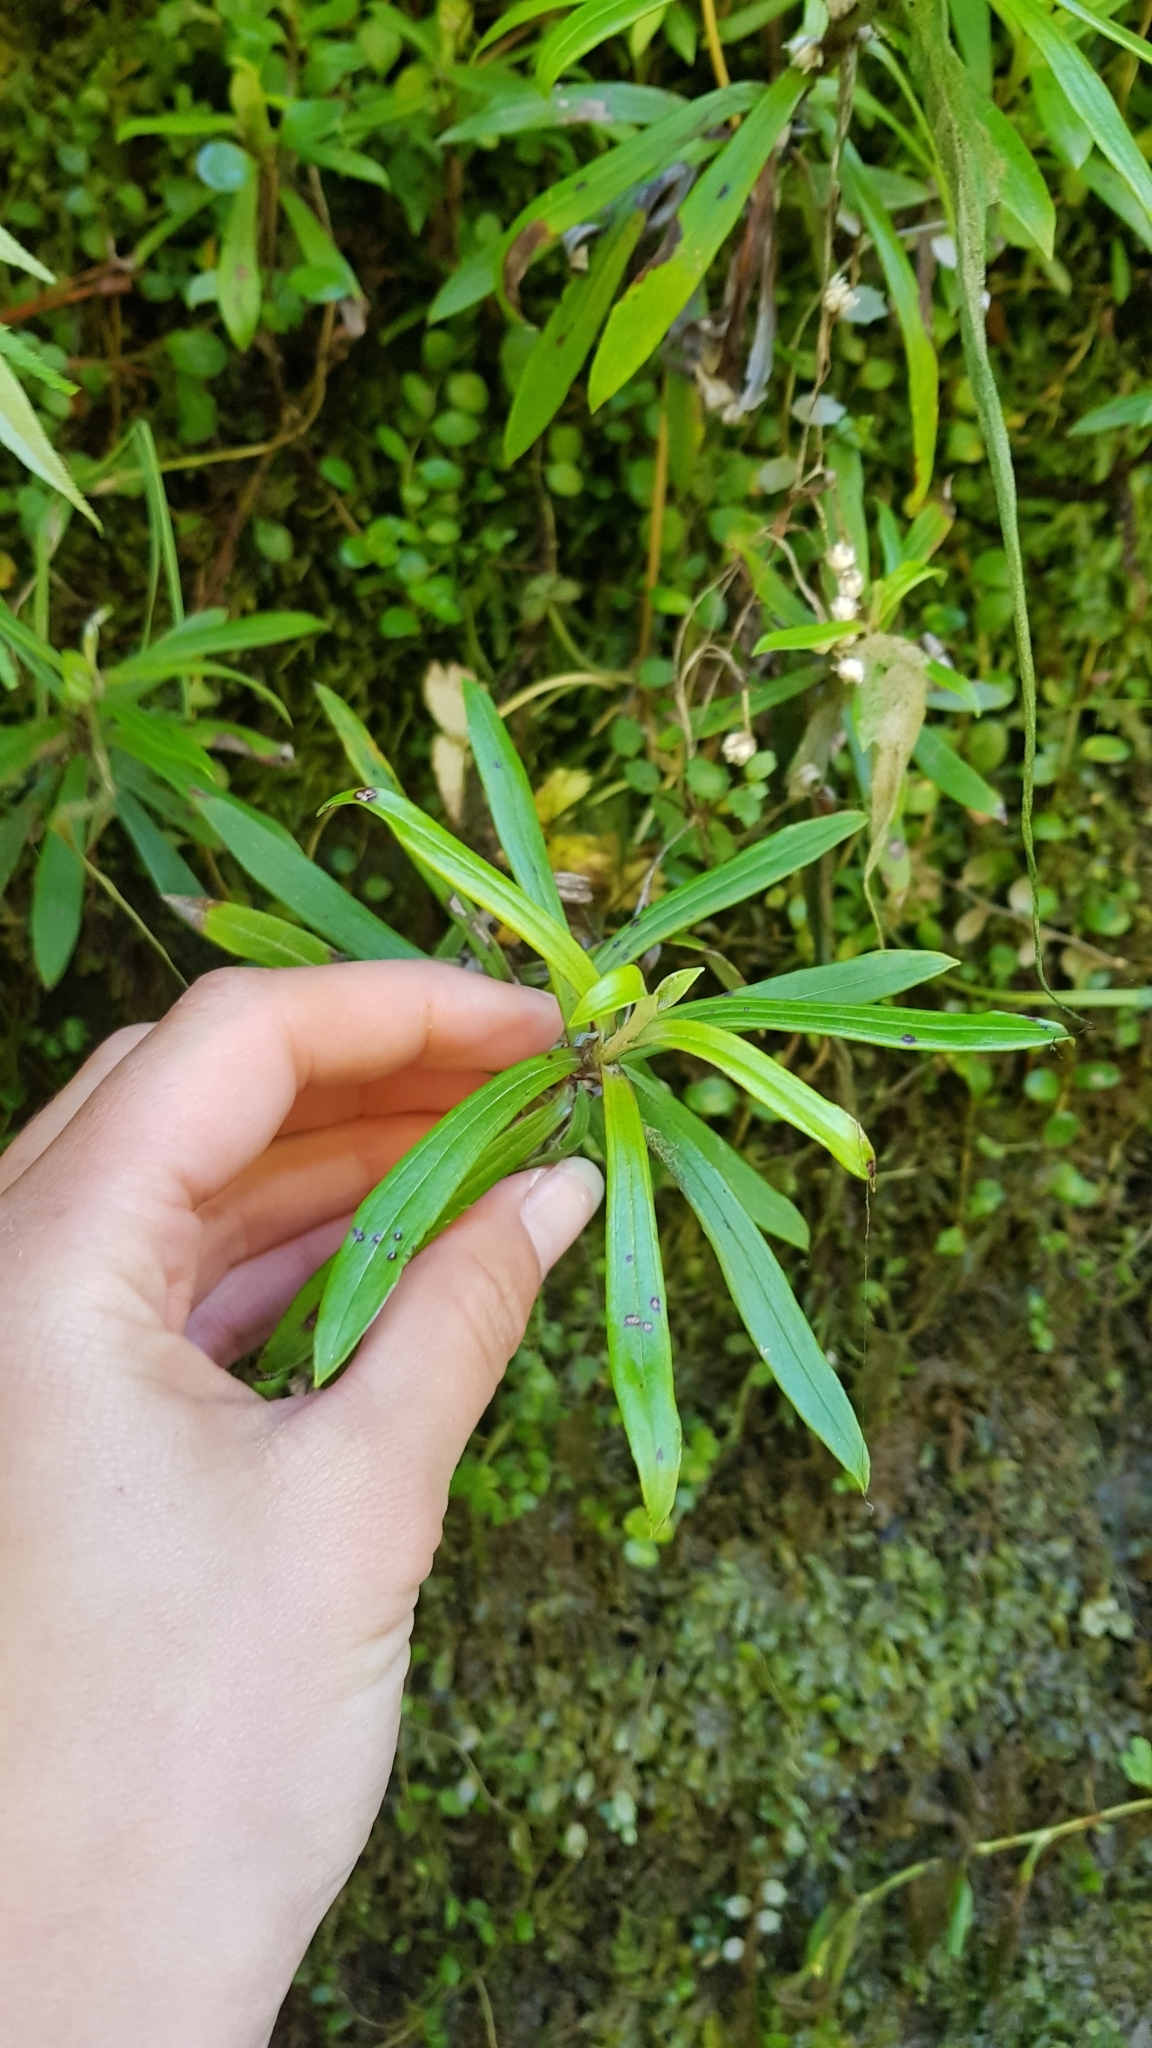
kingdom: Plantae
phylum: Tracheophyta
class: Magnoliopsida
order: Asterales
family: Asteraceae
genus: Anaphalioides
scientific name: Anaphalioides trinervis
